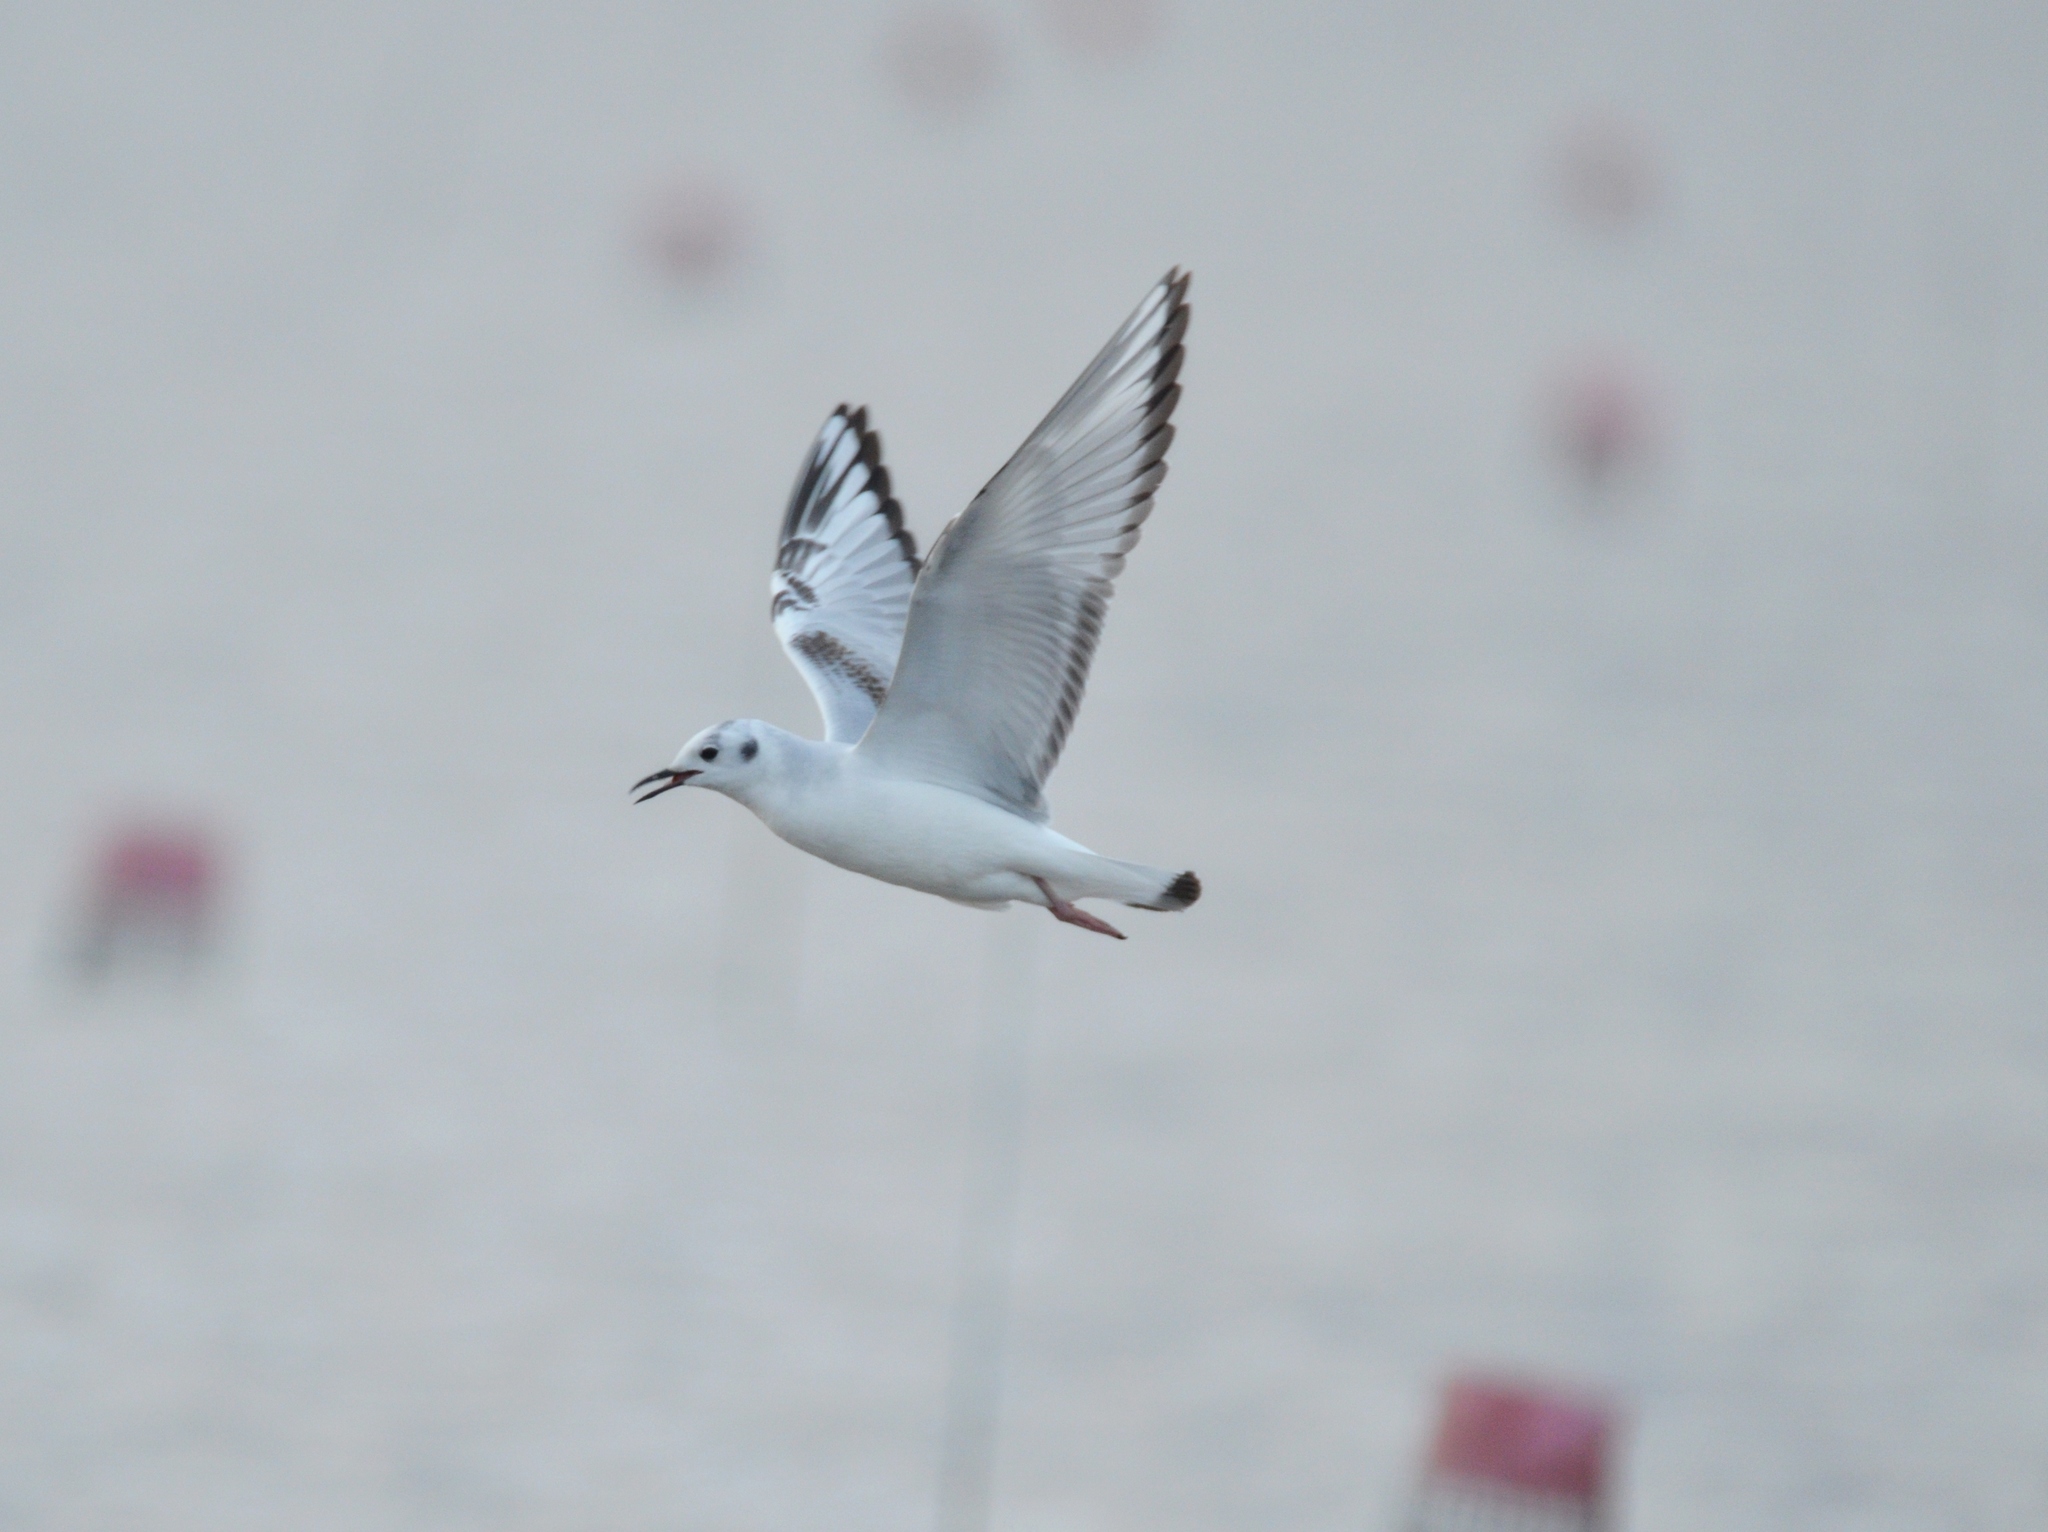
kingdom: Animalia
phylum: Chordata
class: Aves
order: Charadriiformes
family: Laridae
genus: Chroicocephalus
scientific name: Chroicocephalus philadelphia
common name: Bonaparte's gull
